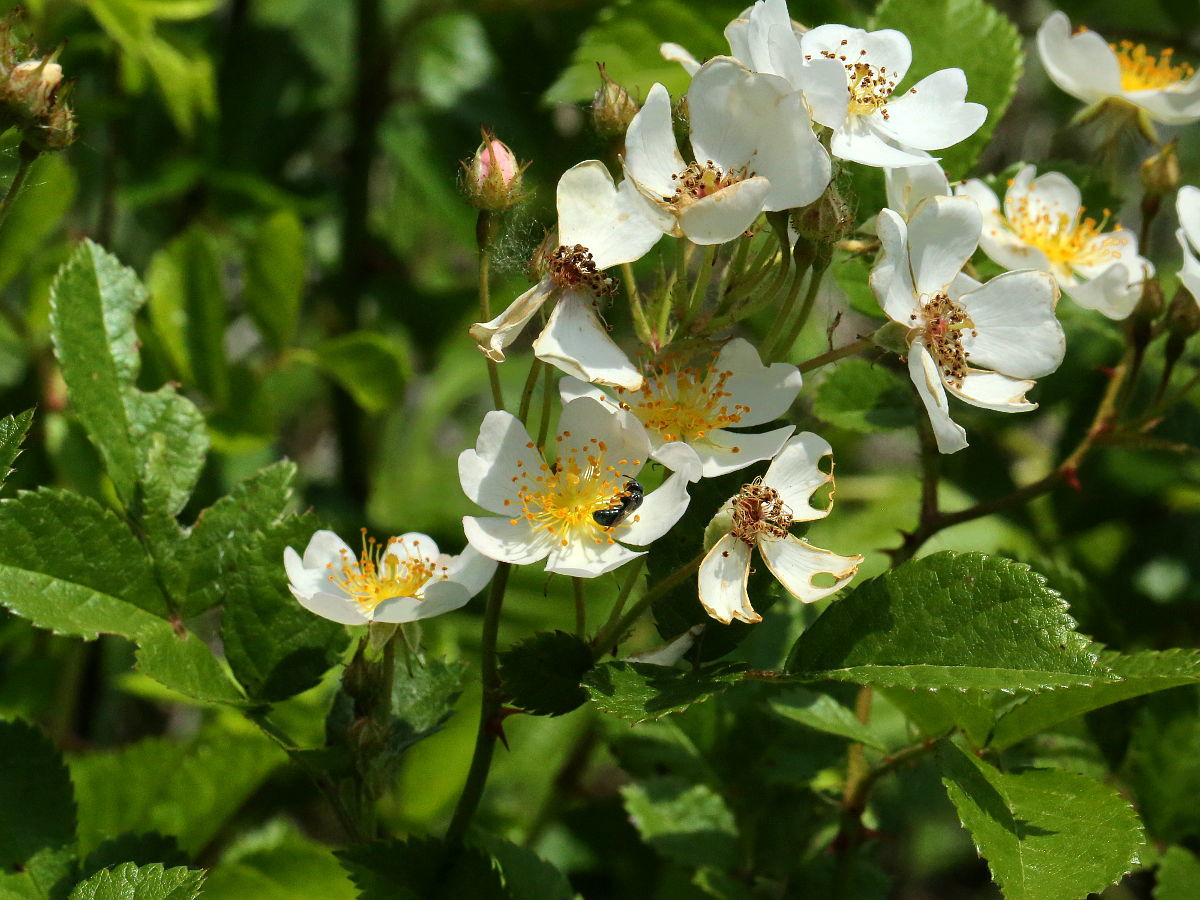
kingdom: Plantae
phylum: Tracheophyta
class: Magnoliopsida
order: Rosales
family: Rosaceae
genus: Rosa
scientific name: Rosa multiflora
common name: Multiflora rose
